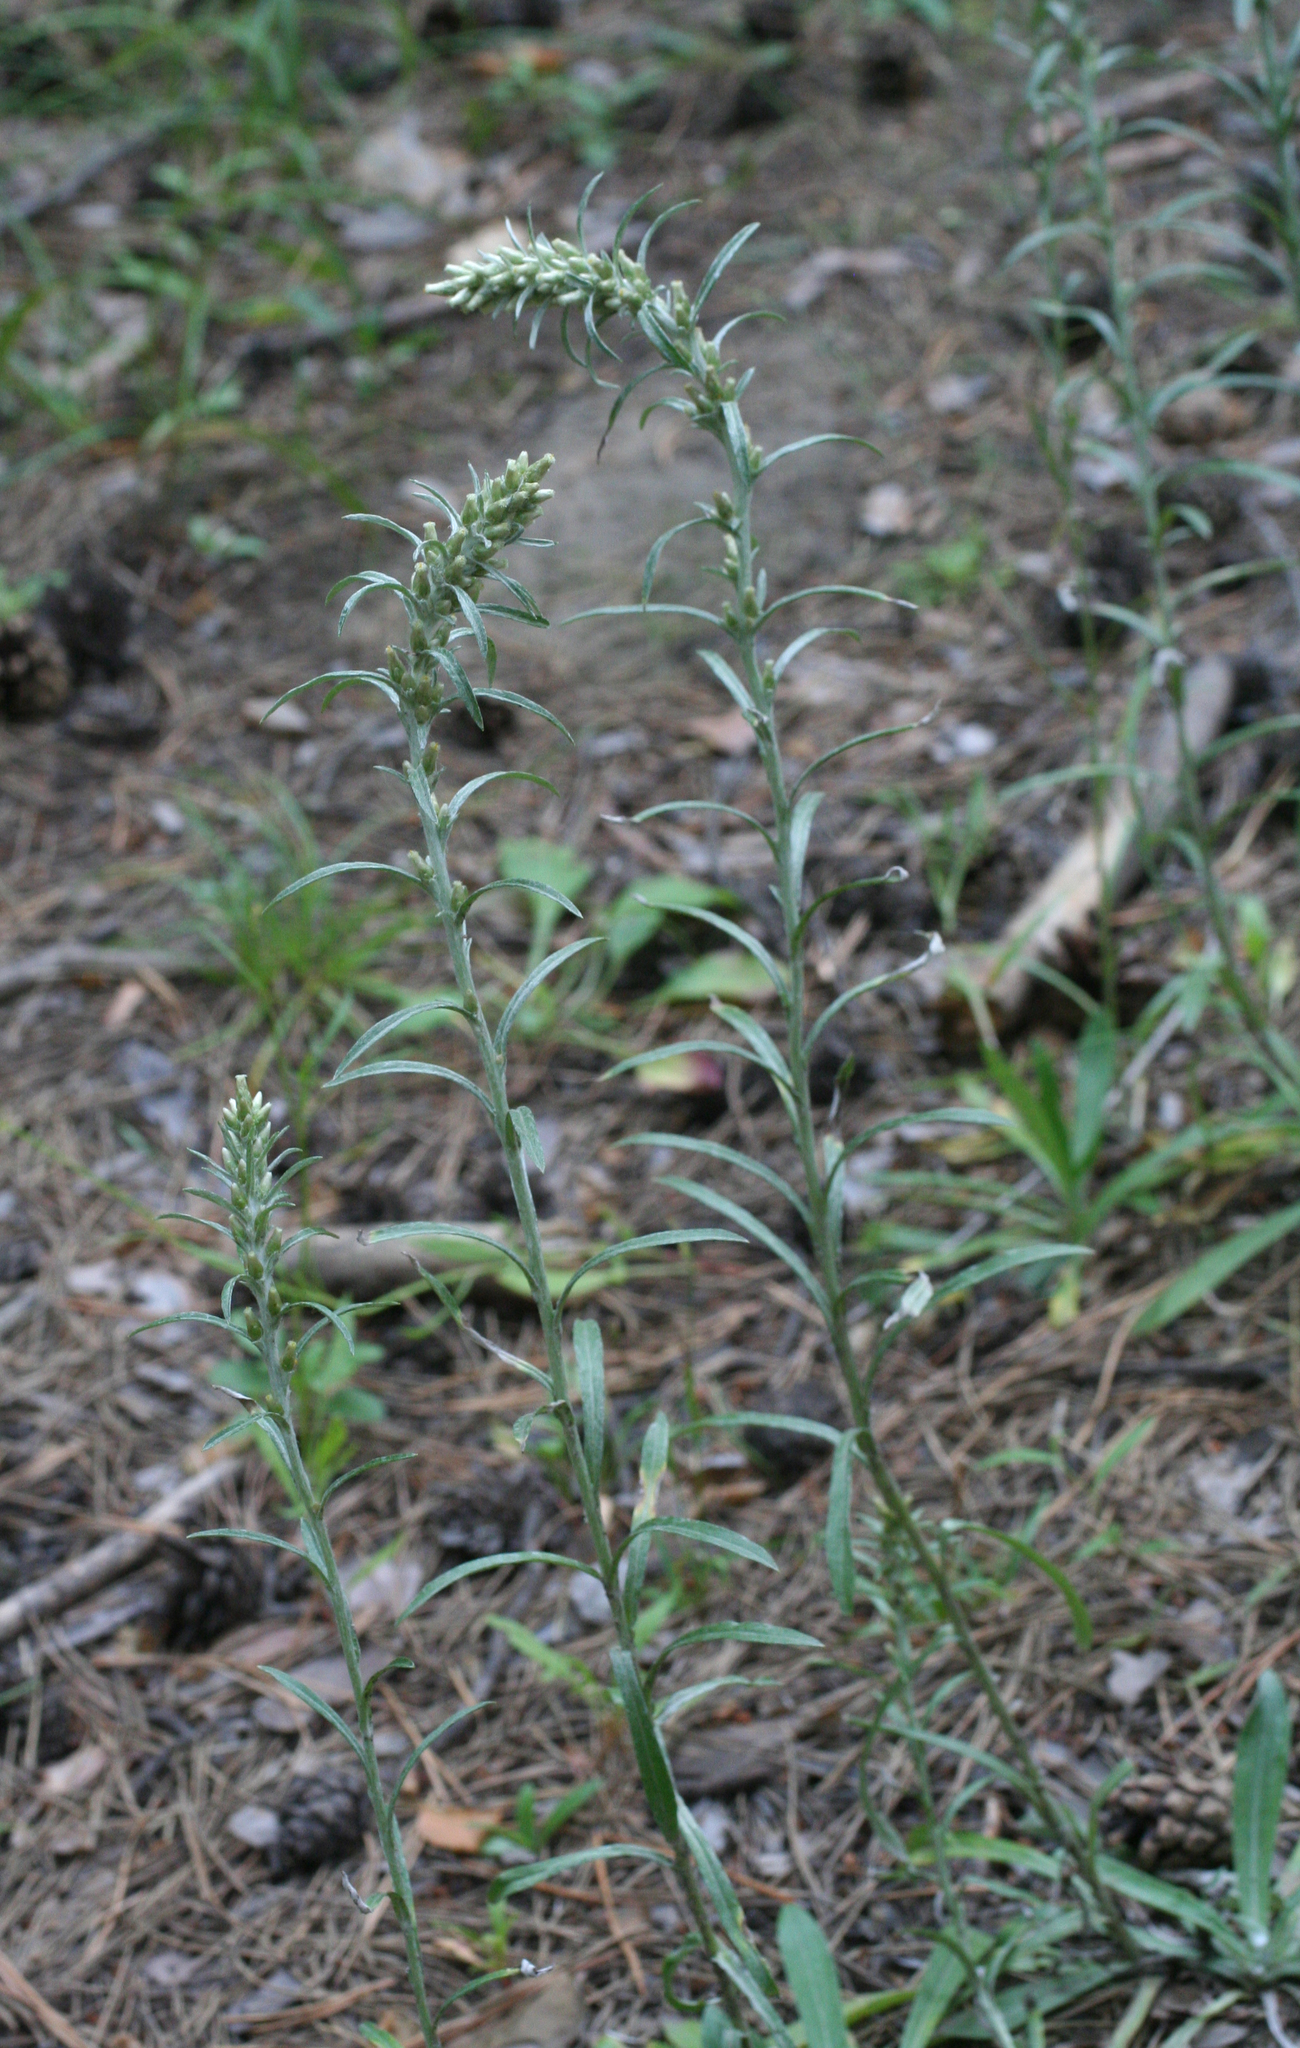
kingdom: Plantae
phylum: Tracheophyta
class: Magnoliopsida
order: Asterales
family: Asteraceae
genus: Omalotheca
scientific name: Omalotheca sylvatica
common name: Heath cudweed
